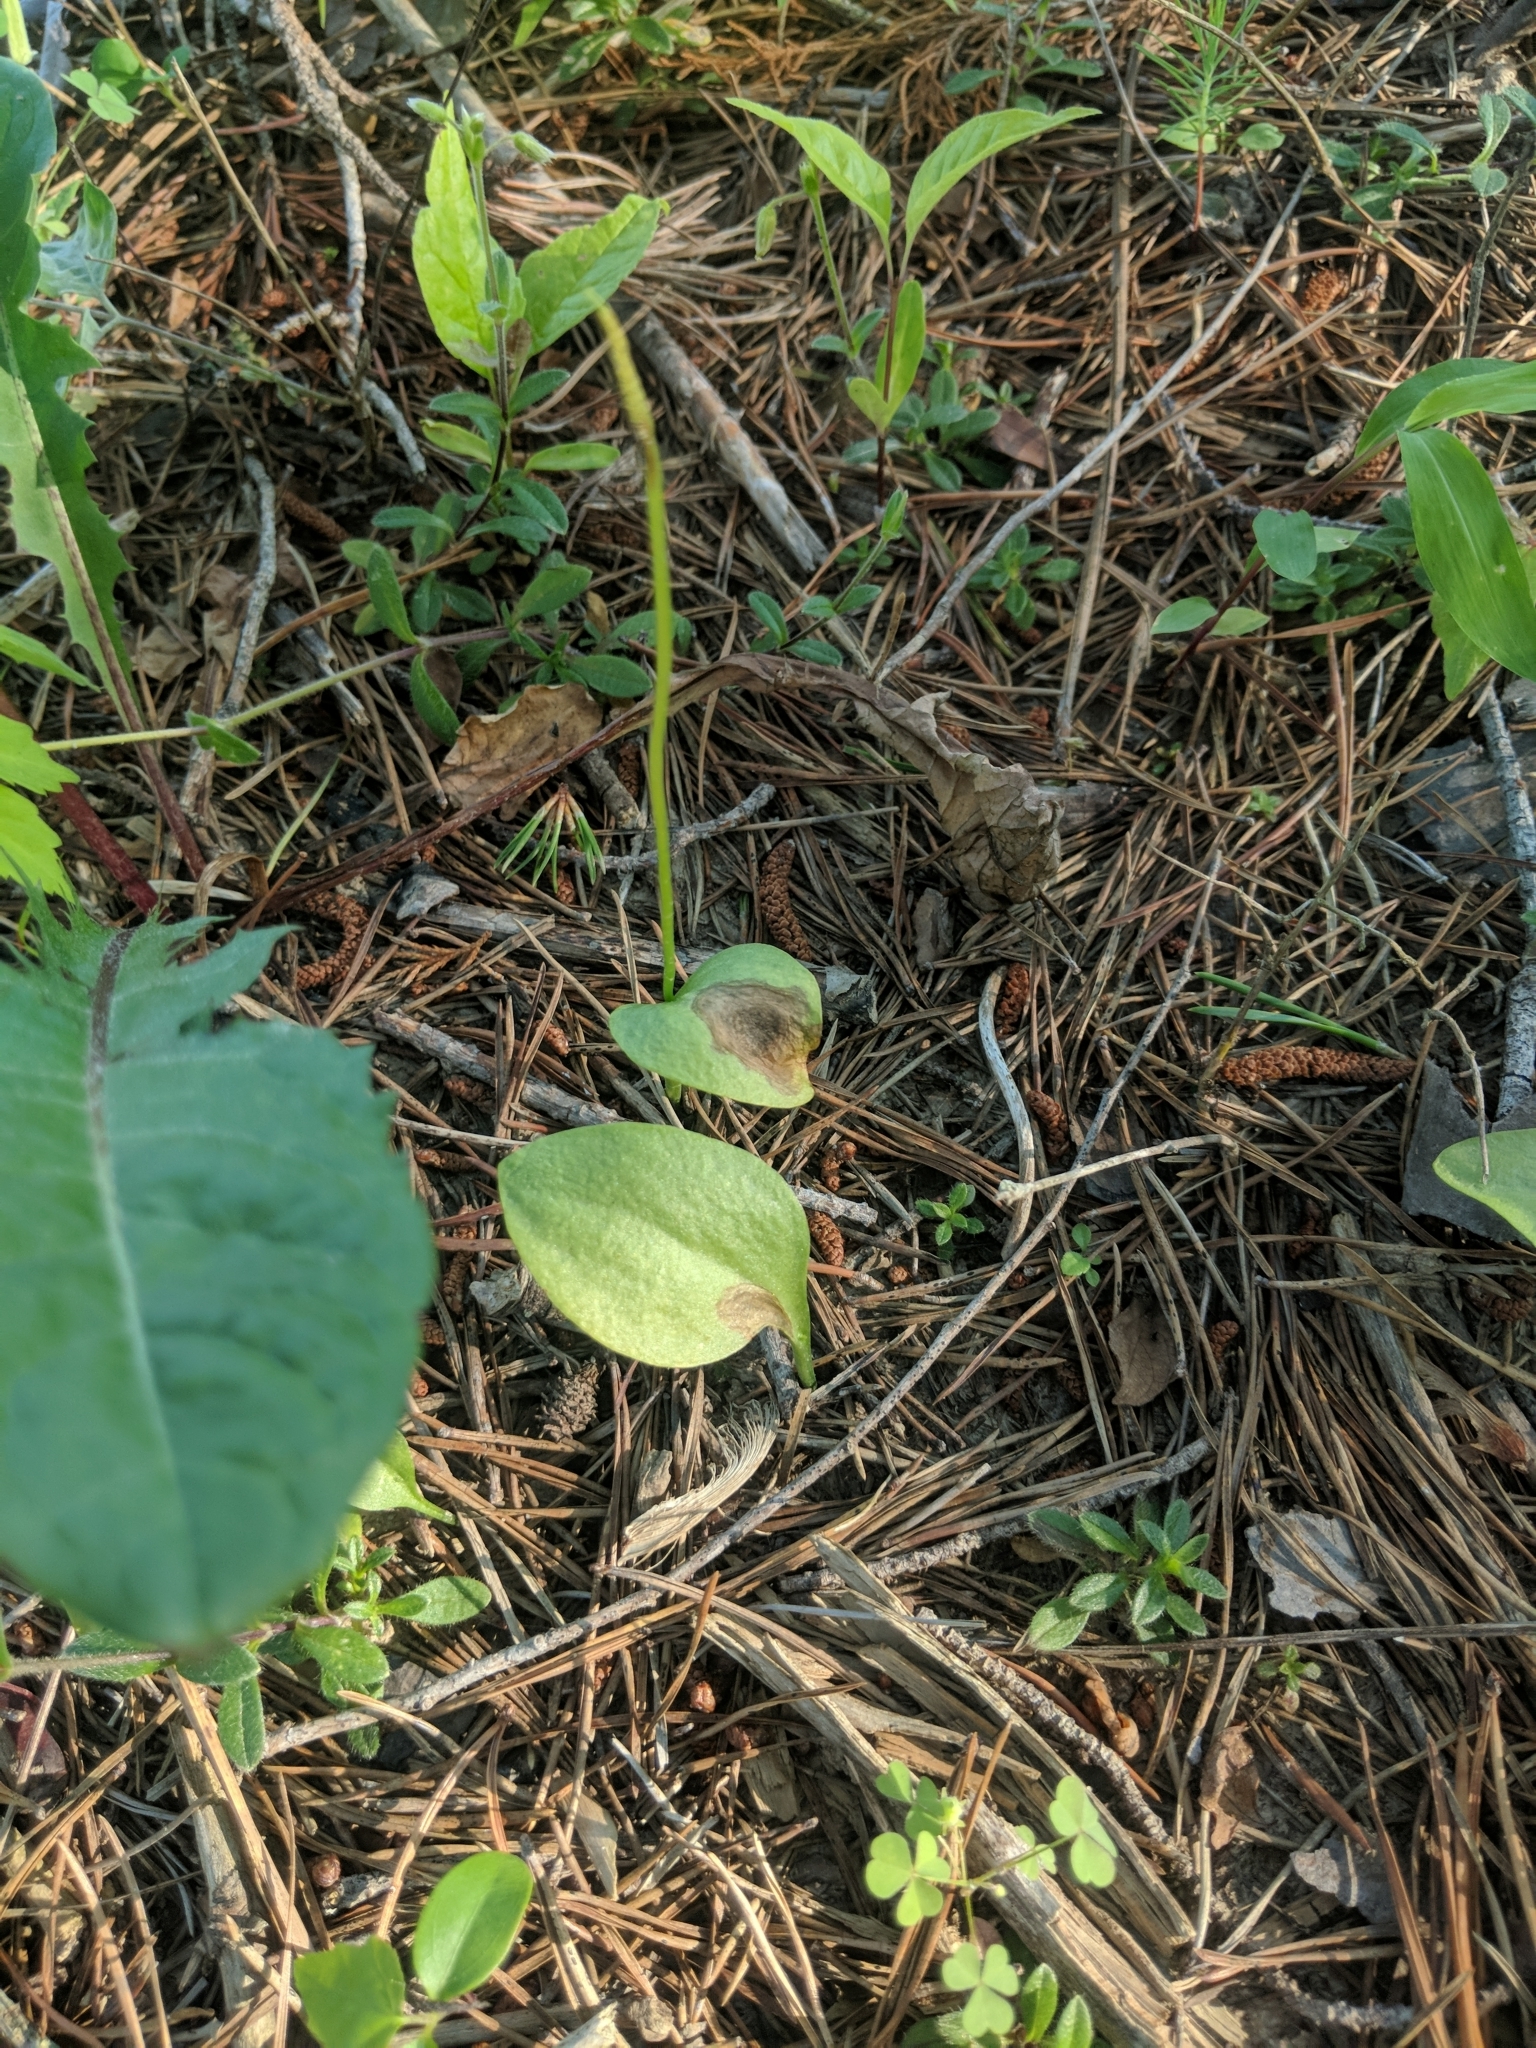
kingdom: Plantae
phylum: Tracheophyta
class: Polypodiopsida
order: Ophioglossales
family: Ophioglossaceae
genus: Ophioglossum
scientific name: Ophioglossum vulgatum
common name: Adder's-tongue
